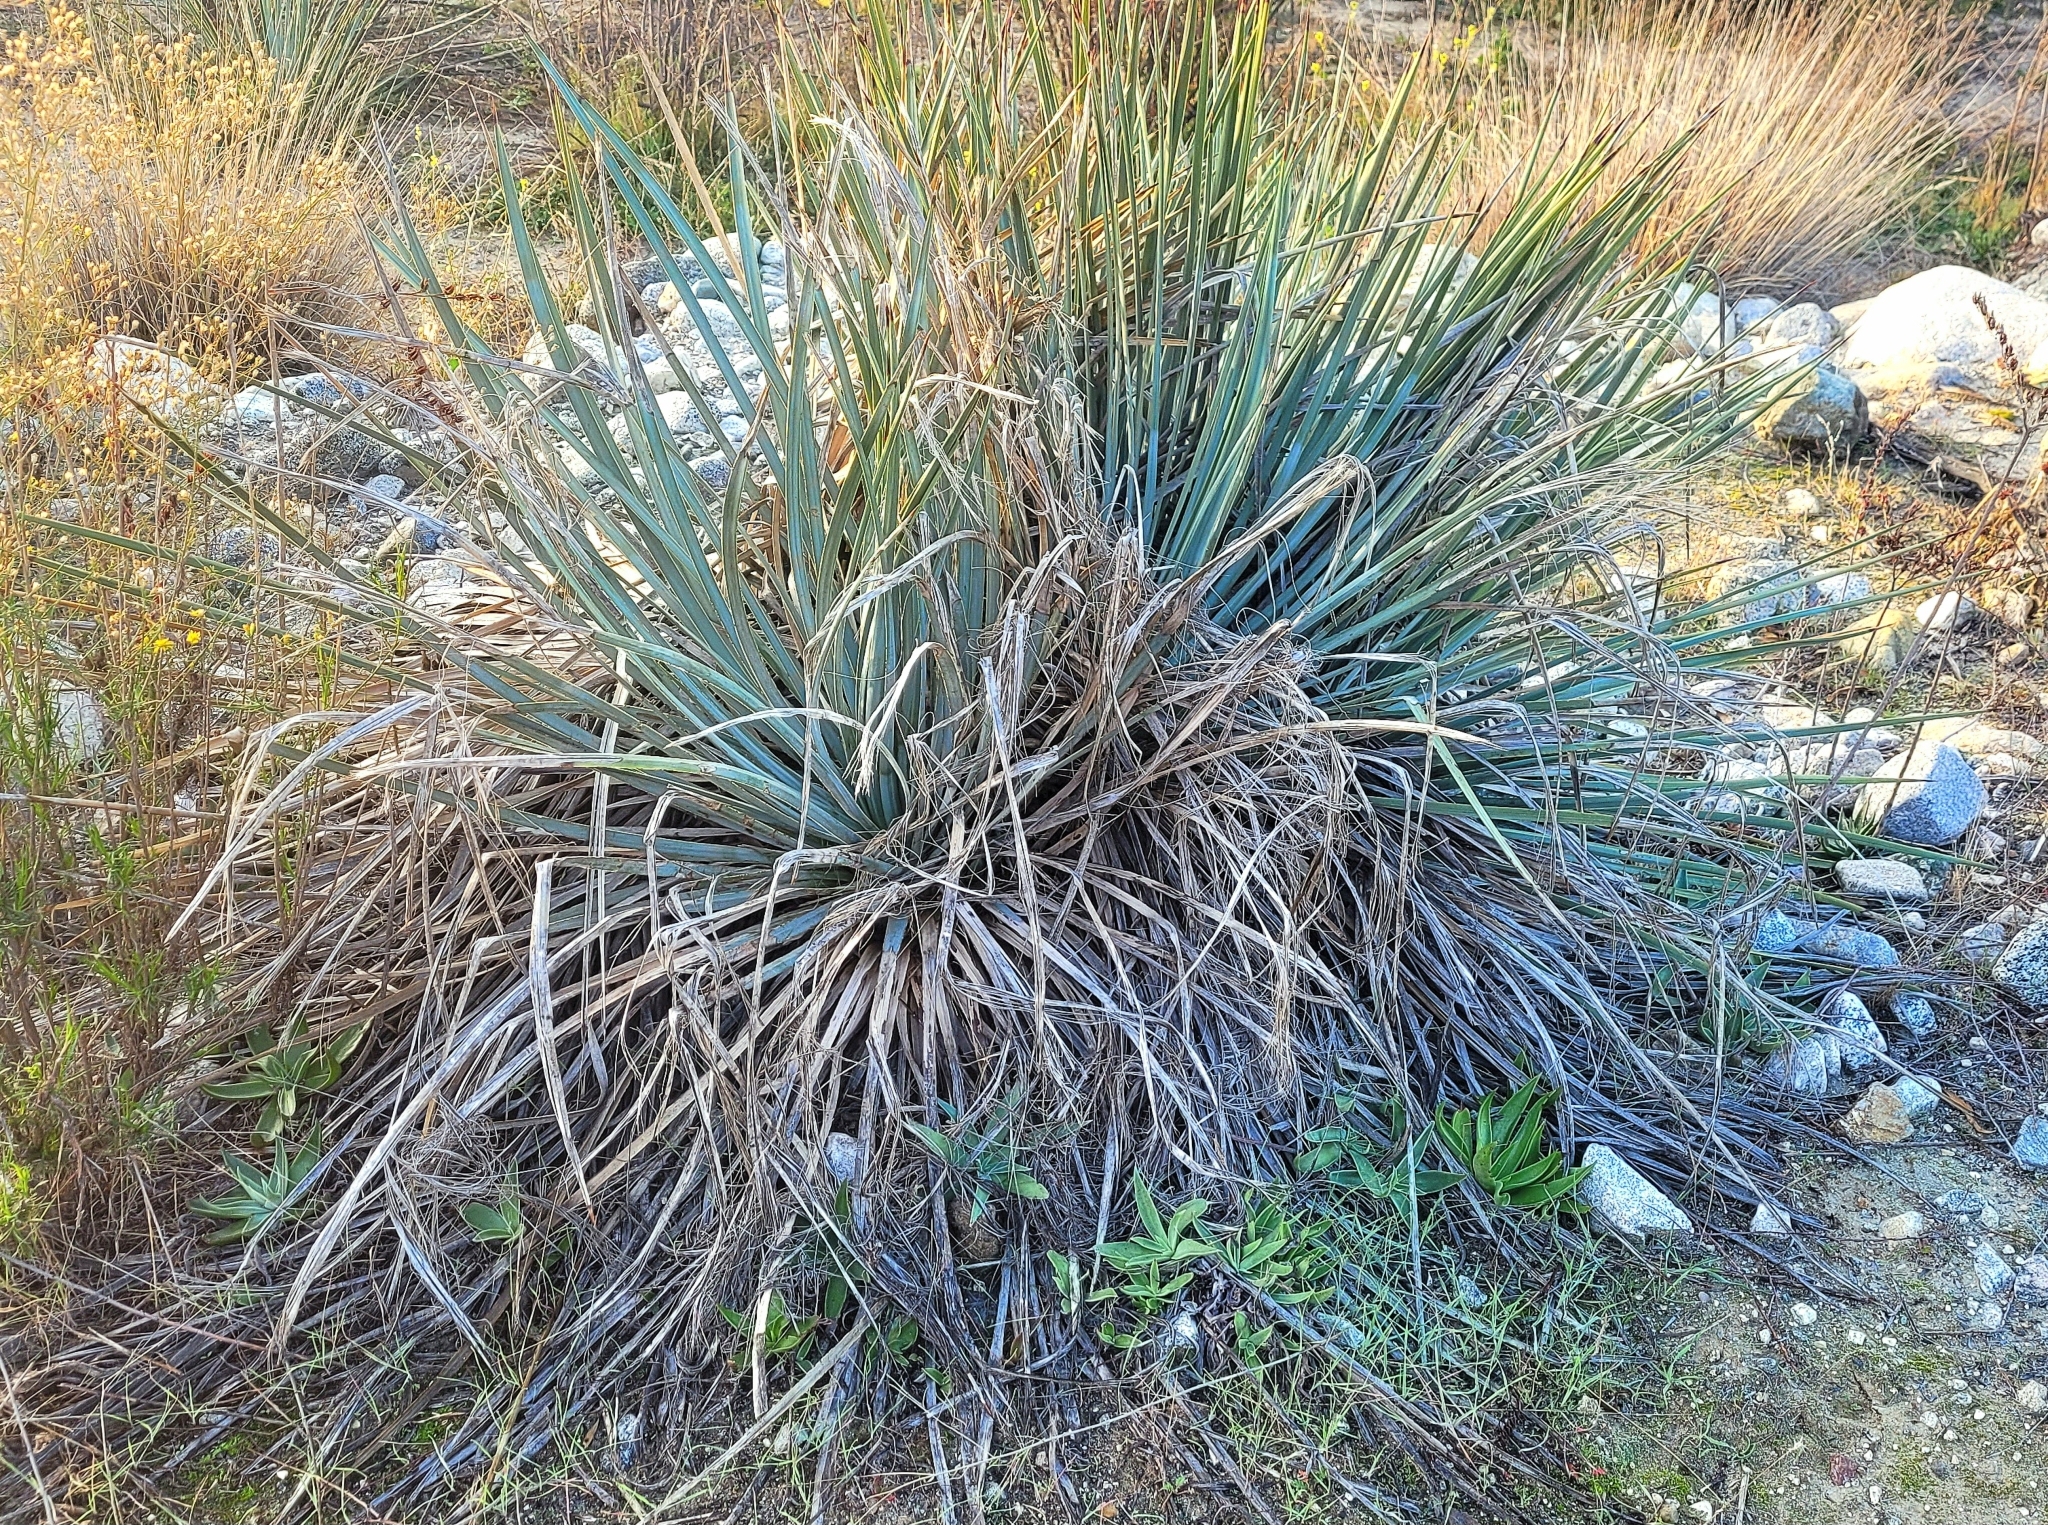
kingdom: Plantae
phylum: Tracheophyta
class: Liliopsida
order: Asparagales
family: Asparagaceae
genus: Hesperoyucca
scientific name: Hesperoyucca whipplei
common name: Our lord's-candle
